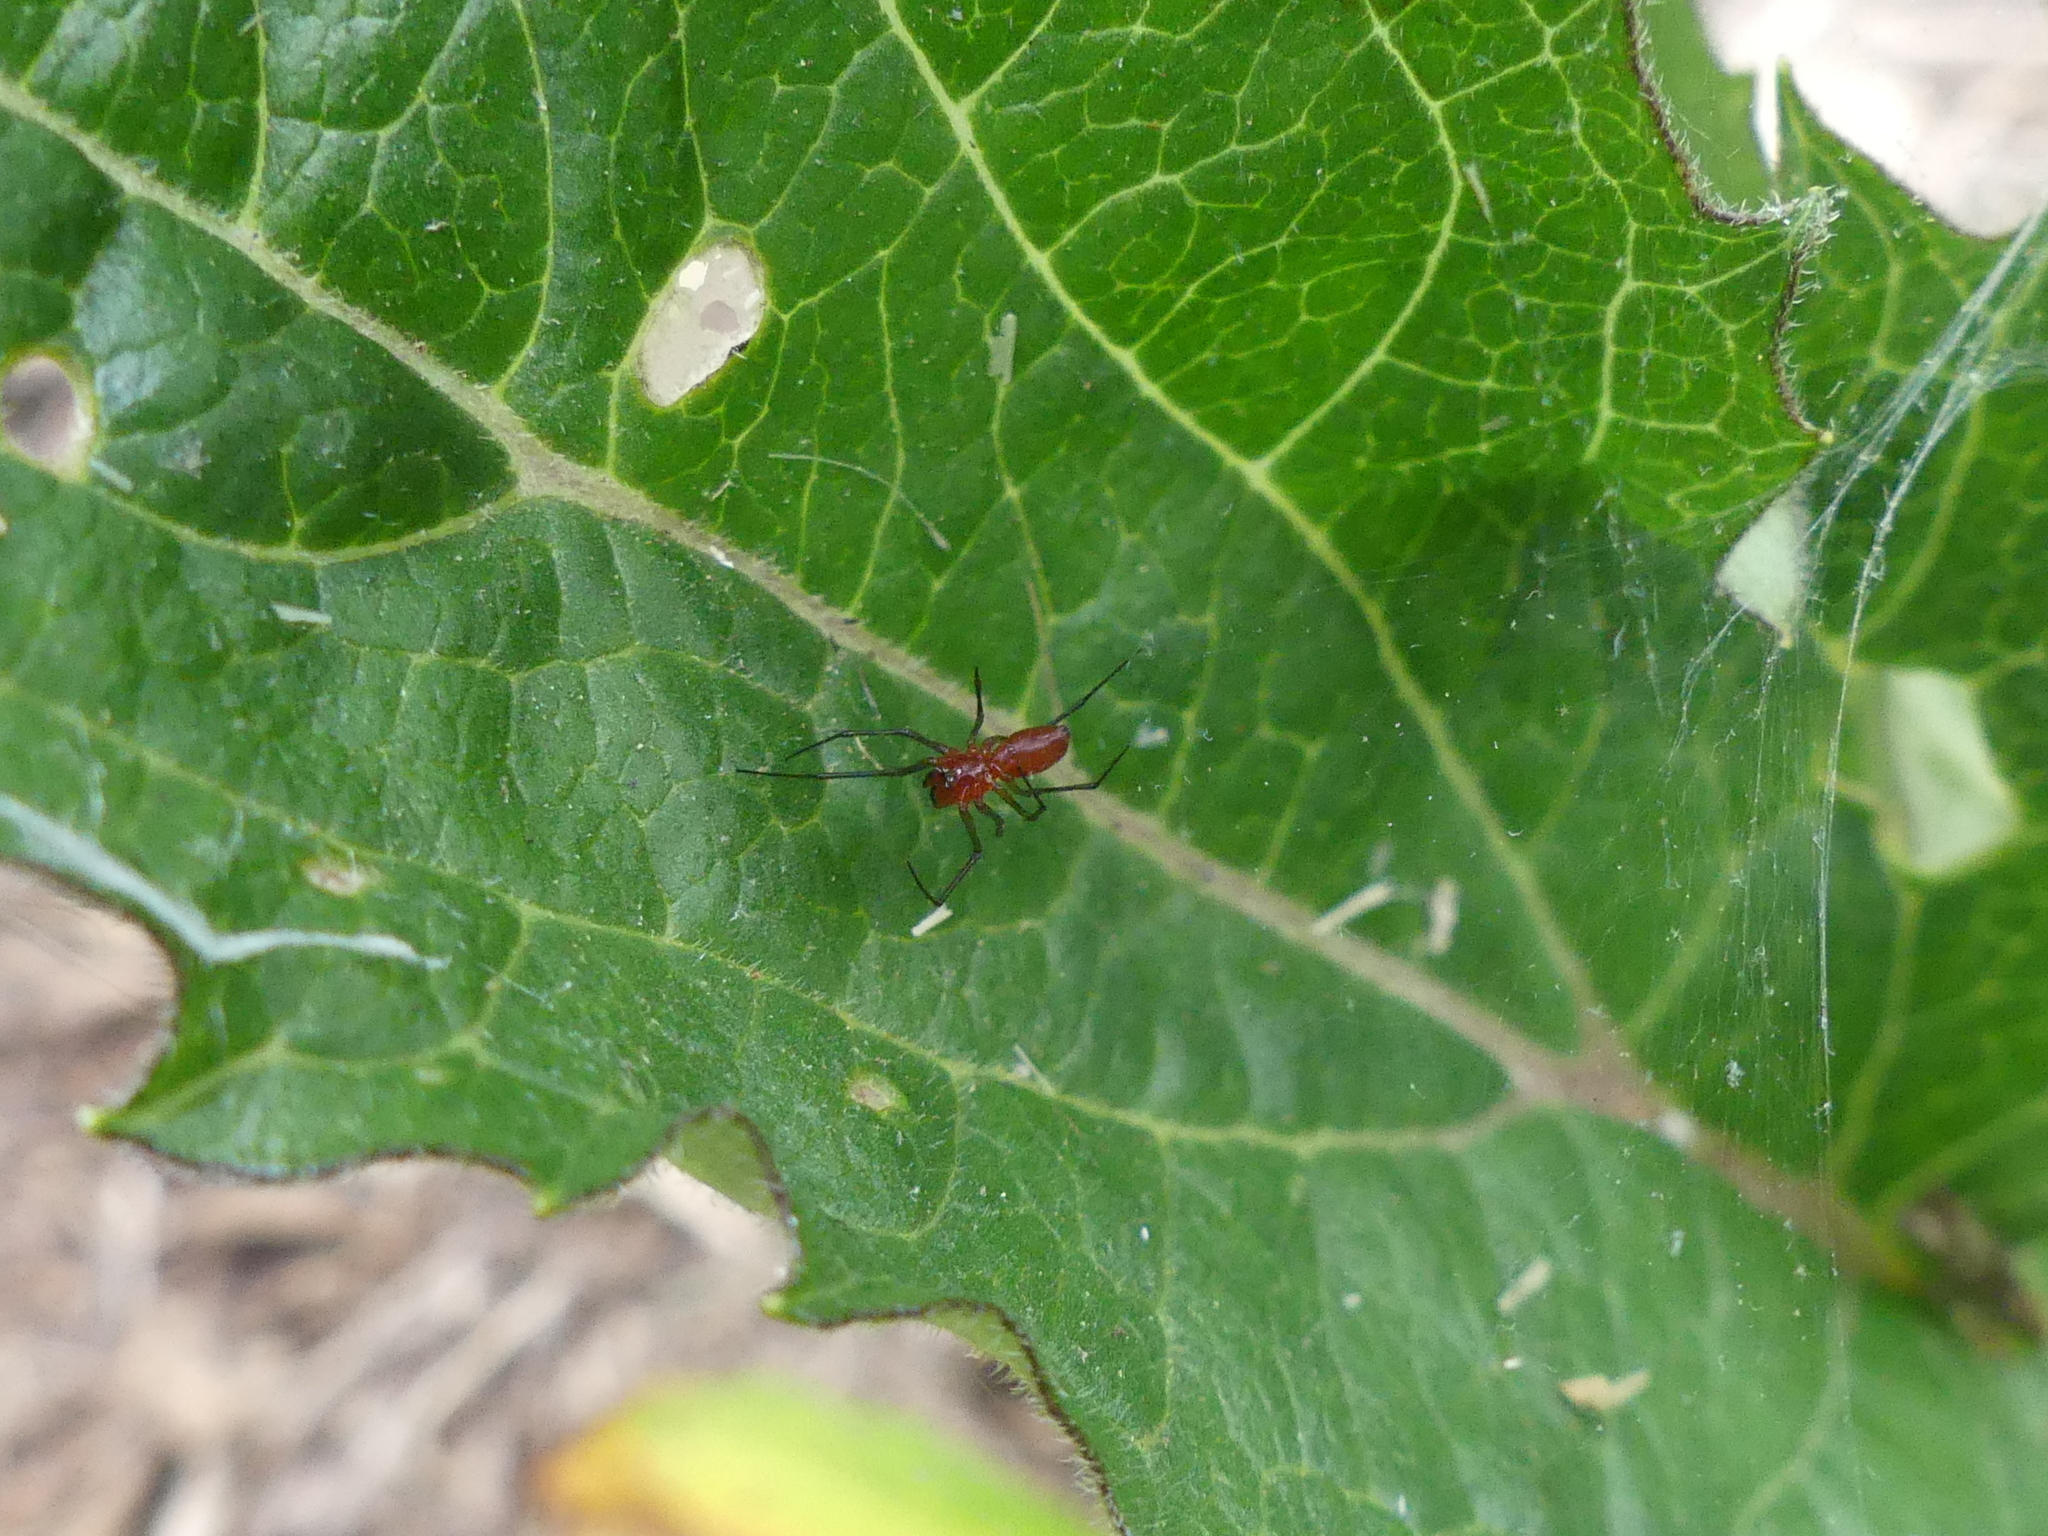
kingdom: Animalia
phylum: Arthropoda
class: Arachnida
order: Araneae
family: Linyphiidae
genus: Florinda
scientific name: Florinda coccinea
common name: Black-tailed red sheetweaver
